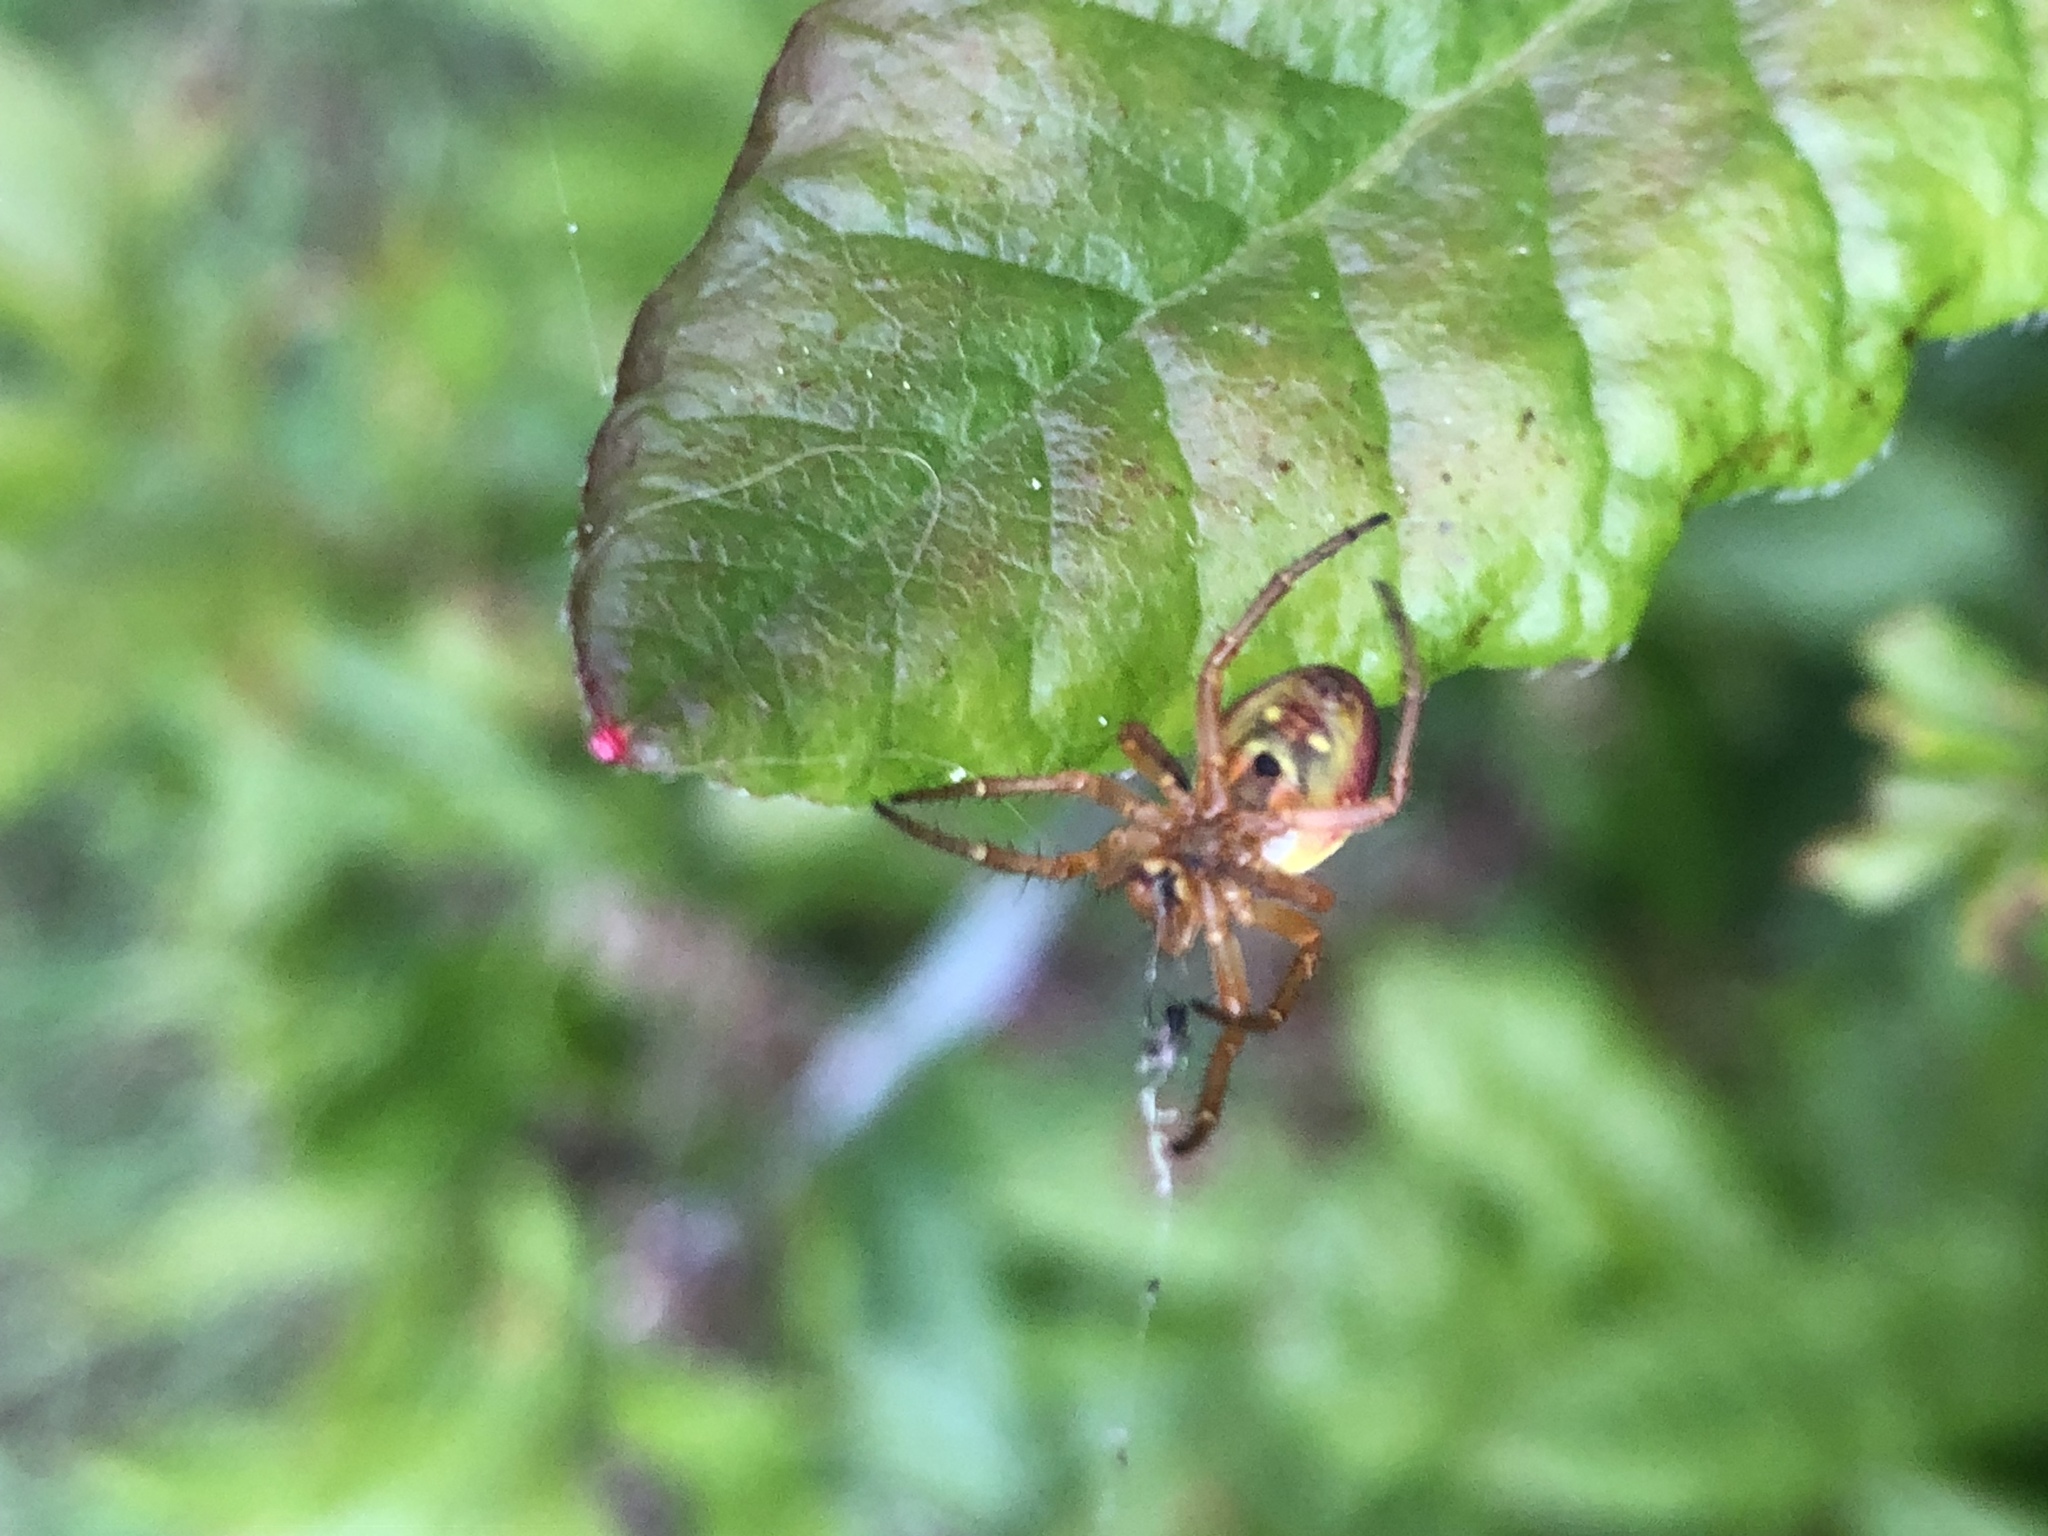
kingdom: Animalia
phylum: Arthropoda
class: Arachnida
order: Araneae
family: Araneidae
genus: Araniella
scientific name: Araniella displicata
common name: Sixspotted orb weaver
